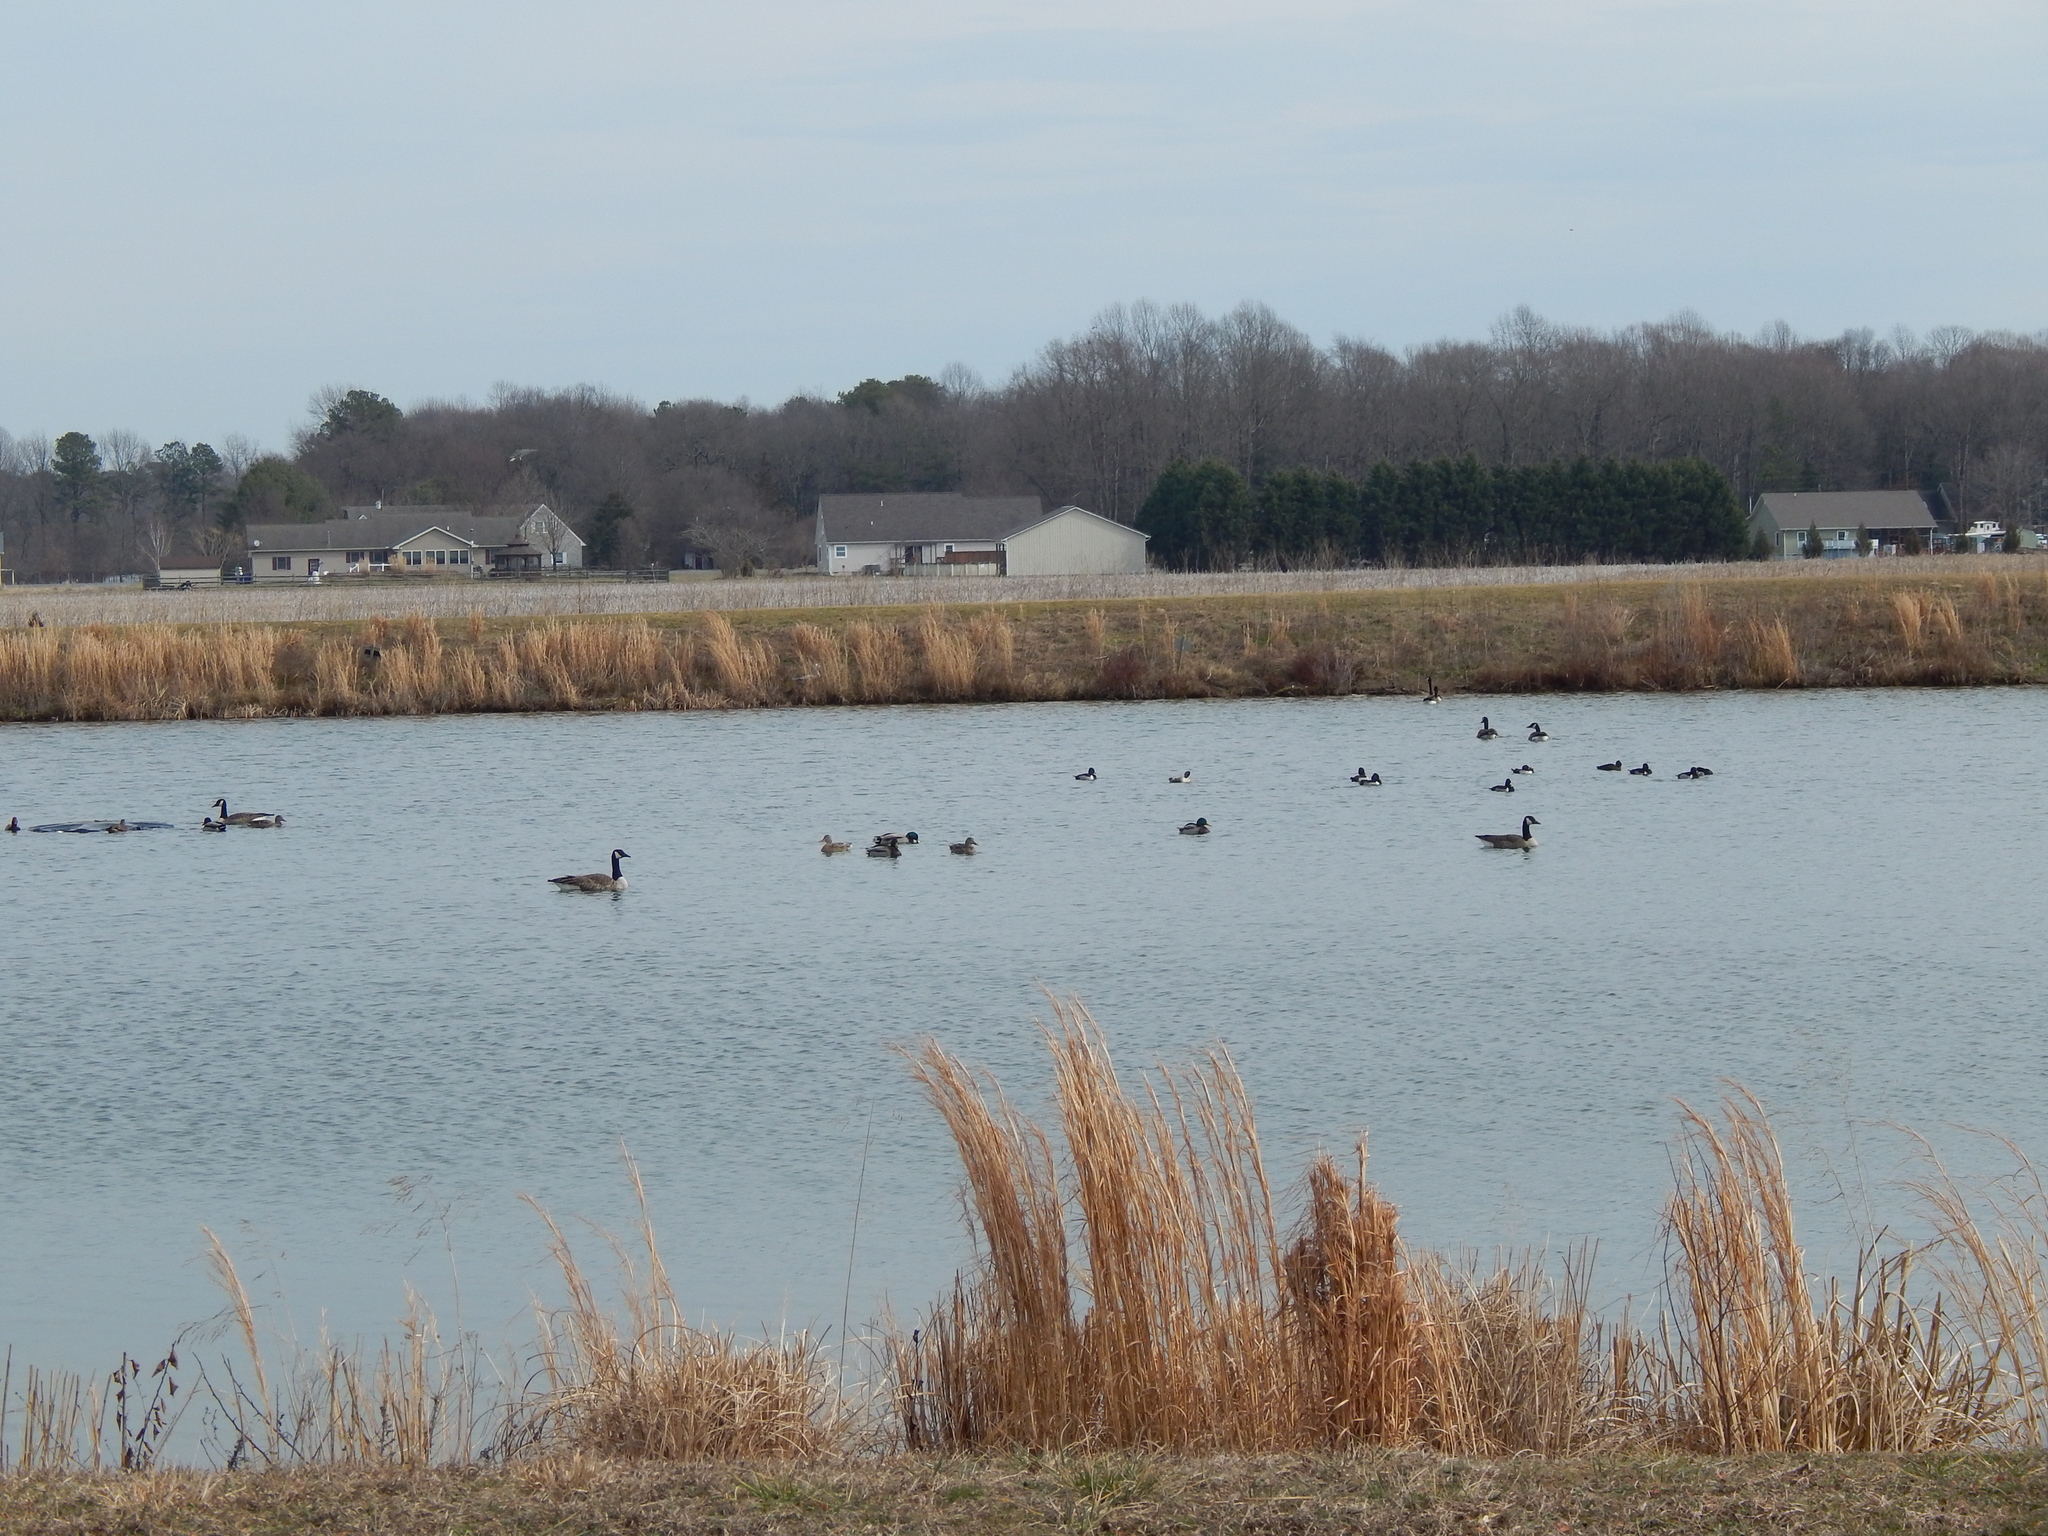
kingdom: Animalia
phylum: Chordata
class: Aves
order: Anseriformes
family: Anatidae
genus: Aythya
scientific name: Aythya collaris
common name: Ring-necked duck
